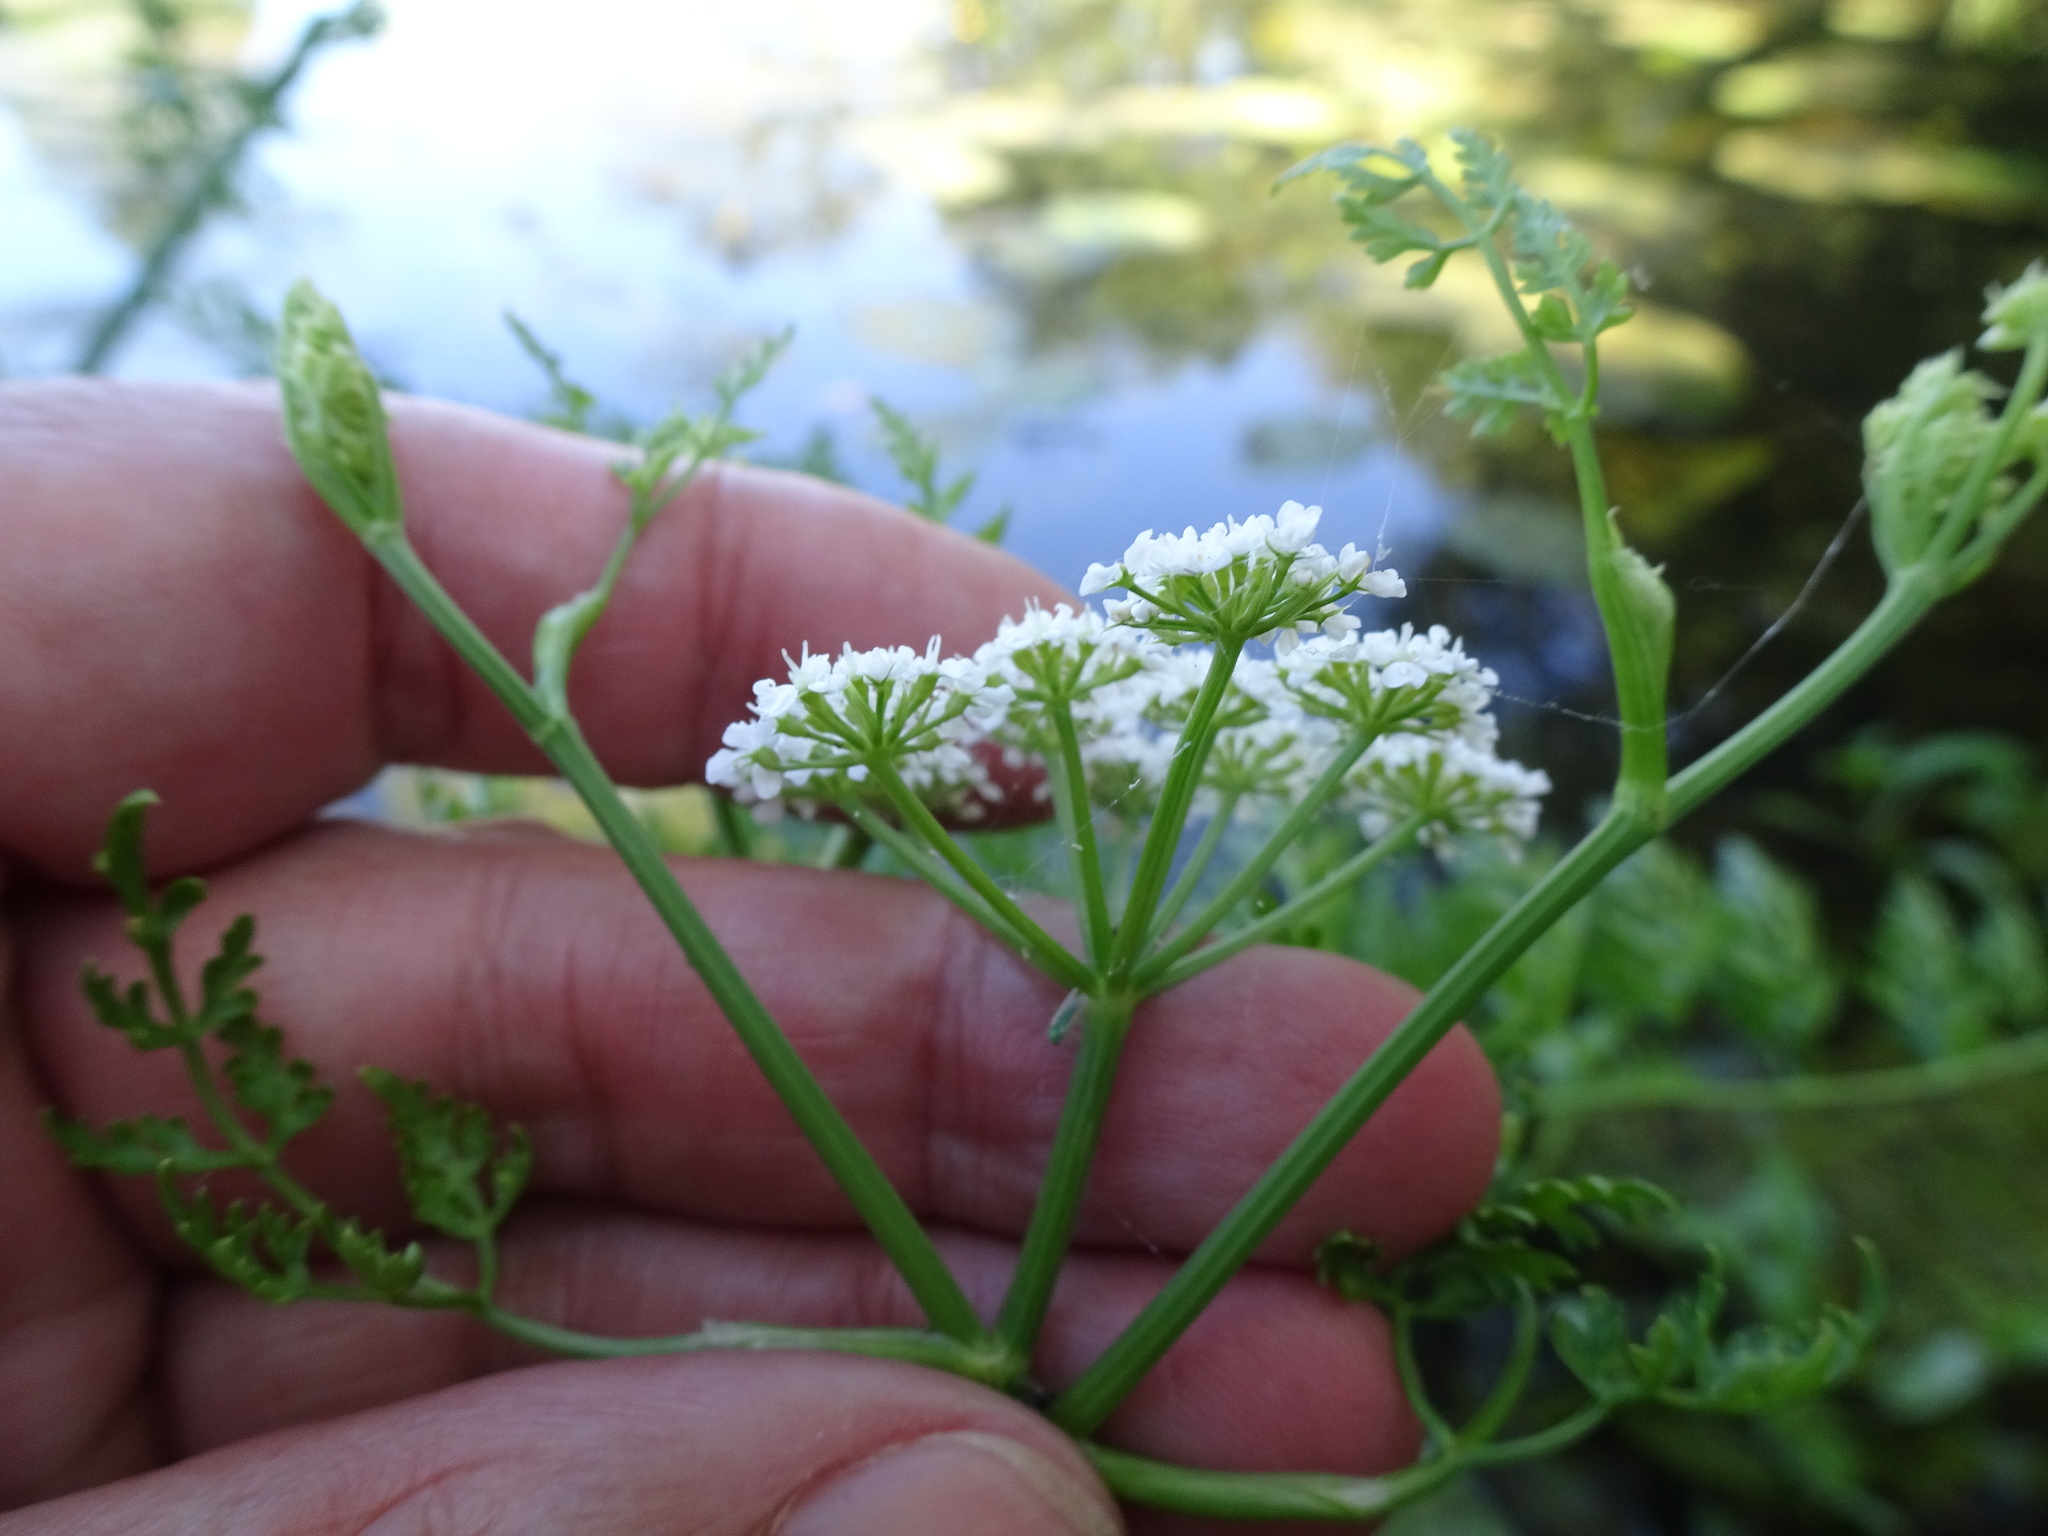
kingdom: Plantae
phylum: Tracheophyta
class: Magnoliopsida
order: Apiales
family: Apiaceae
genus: Oenanthe
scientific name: Oenanthe aquatica
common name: Fine-leaved water-dropwort
